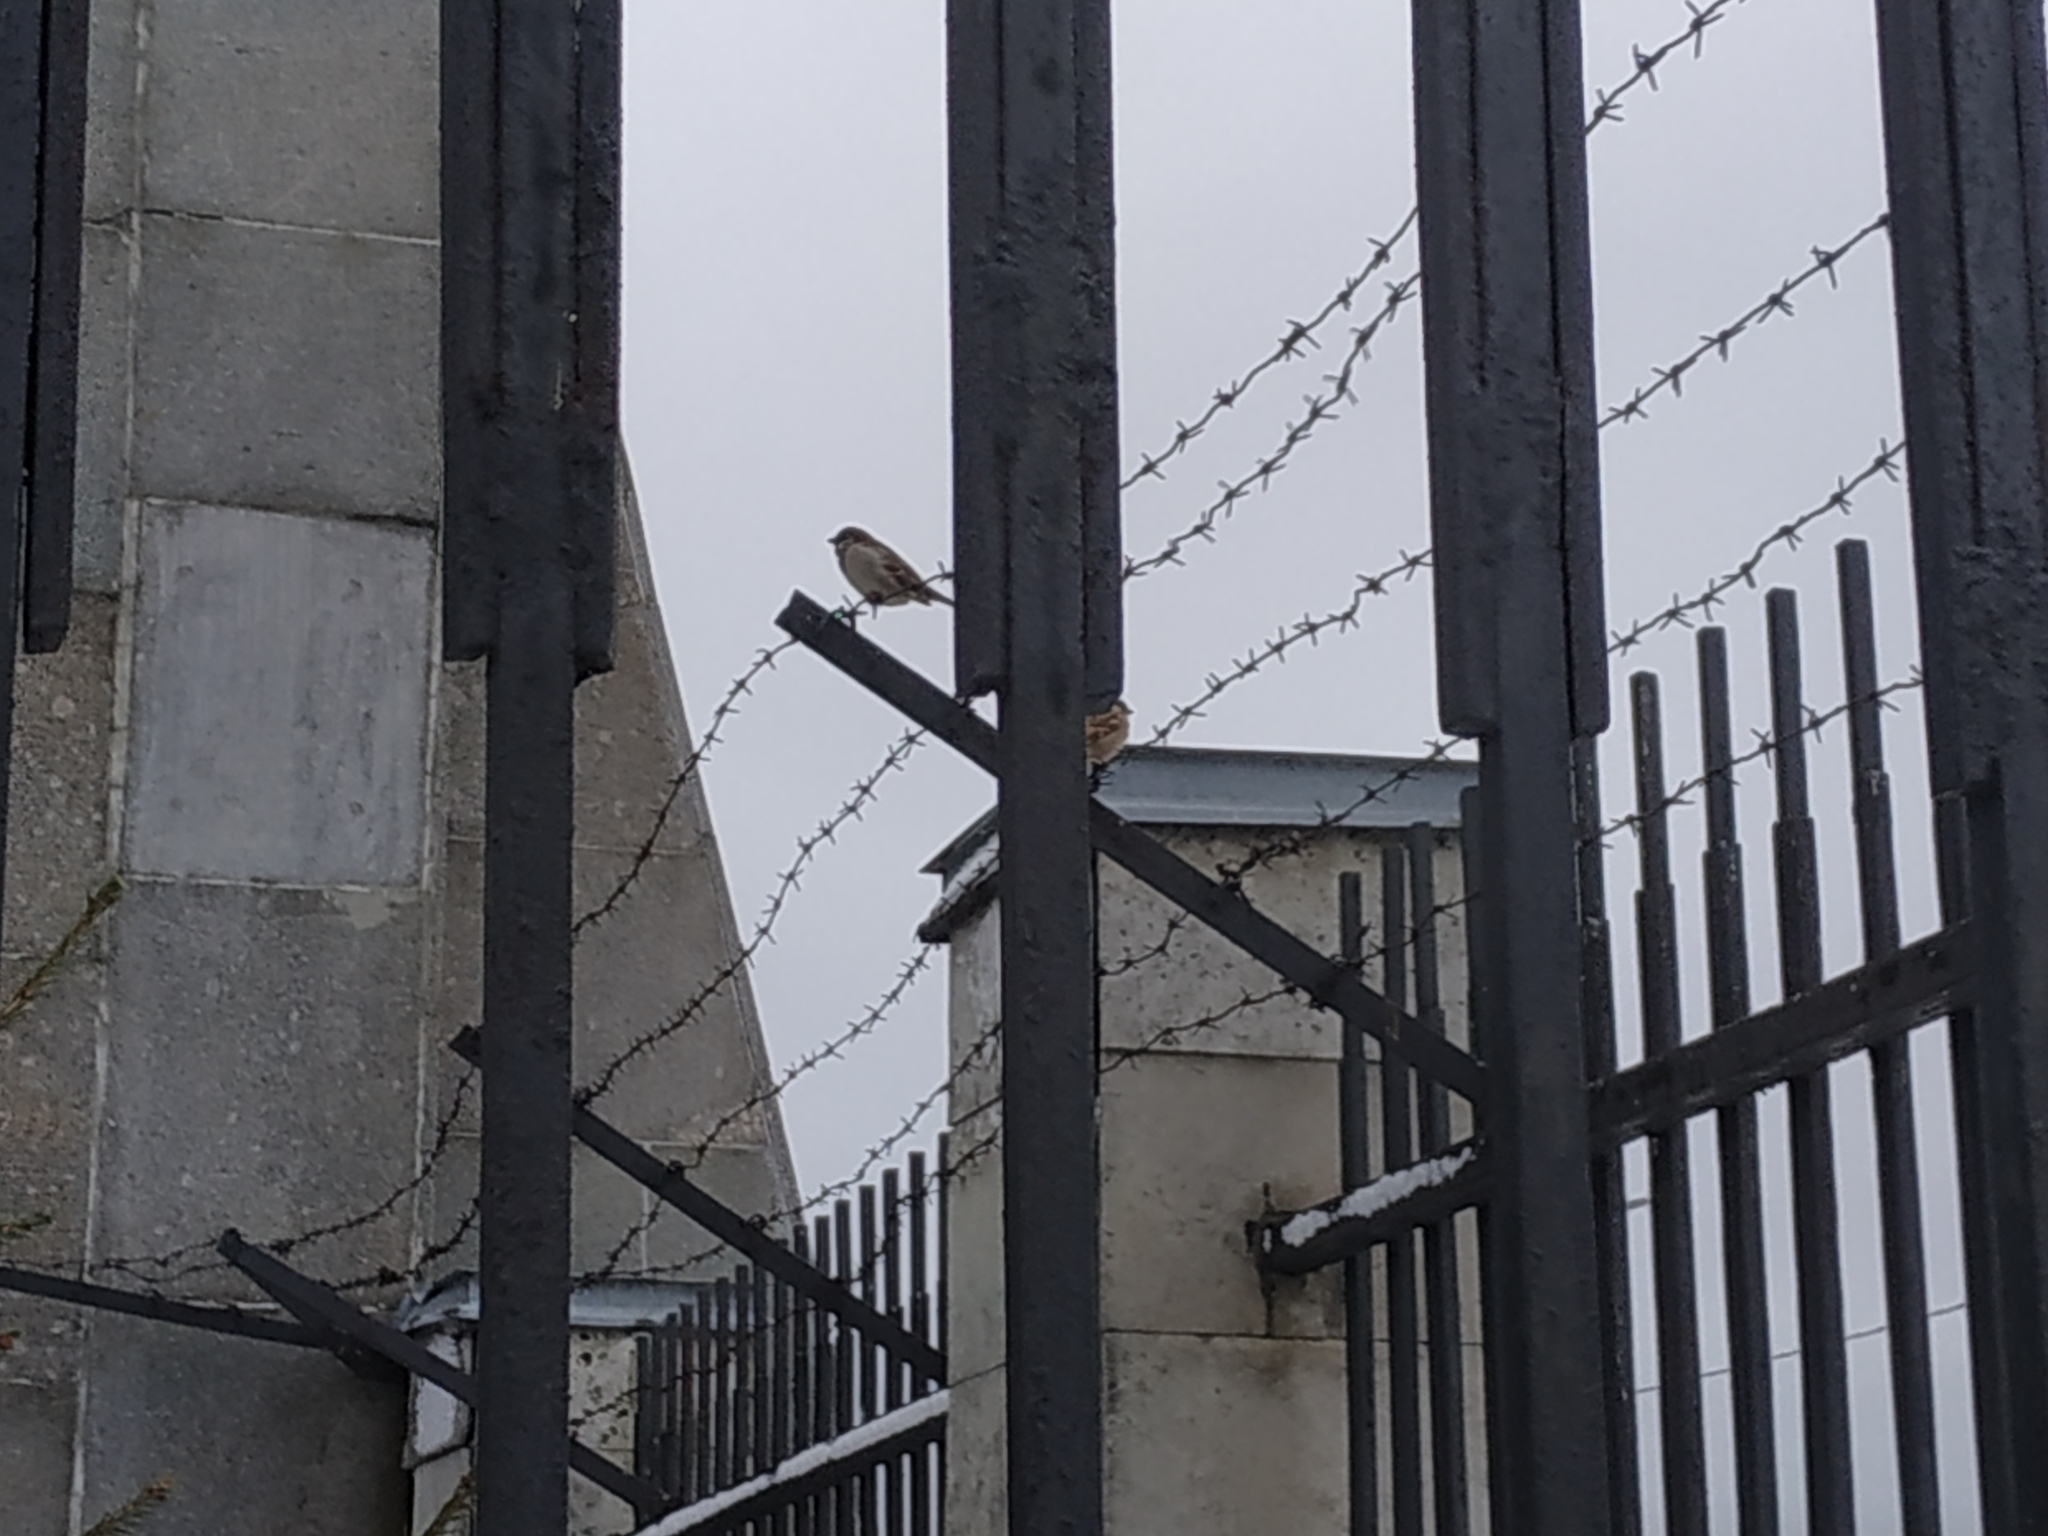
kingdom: Animalia
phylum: Chordata
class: Aves
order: Passeriformes
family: Passeridae
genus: Passer
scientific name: Passer montanus
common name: Eurasian tree sparrow
